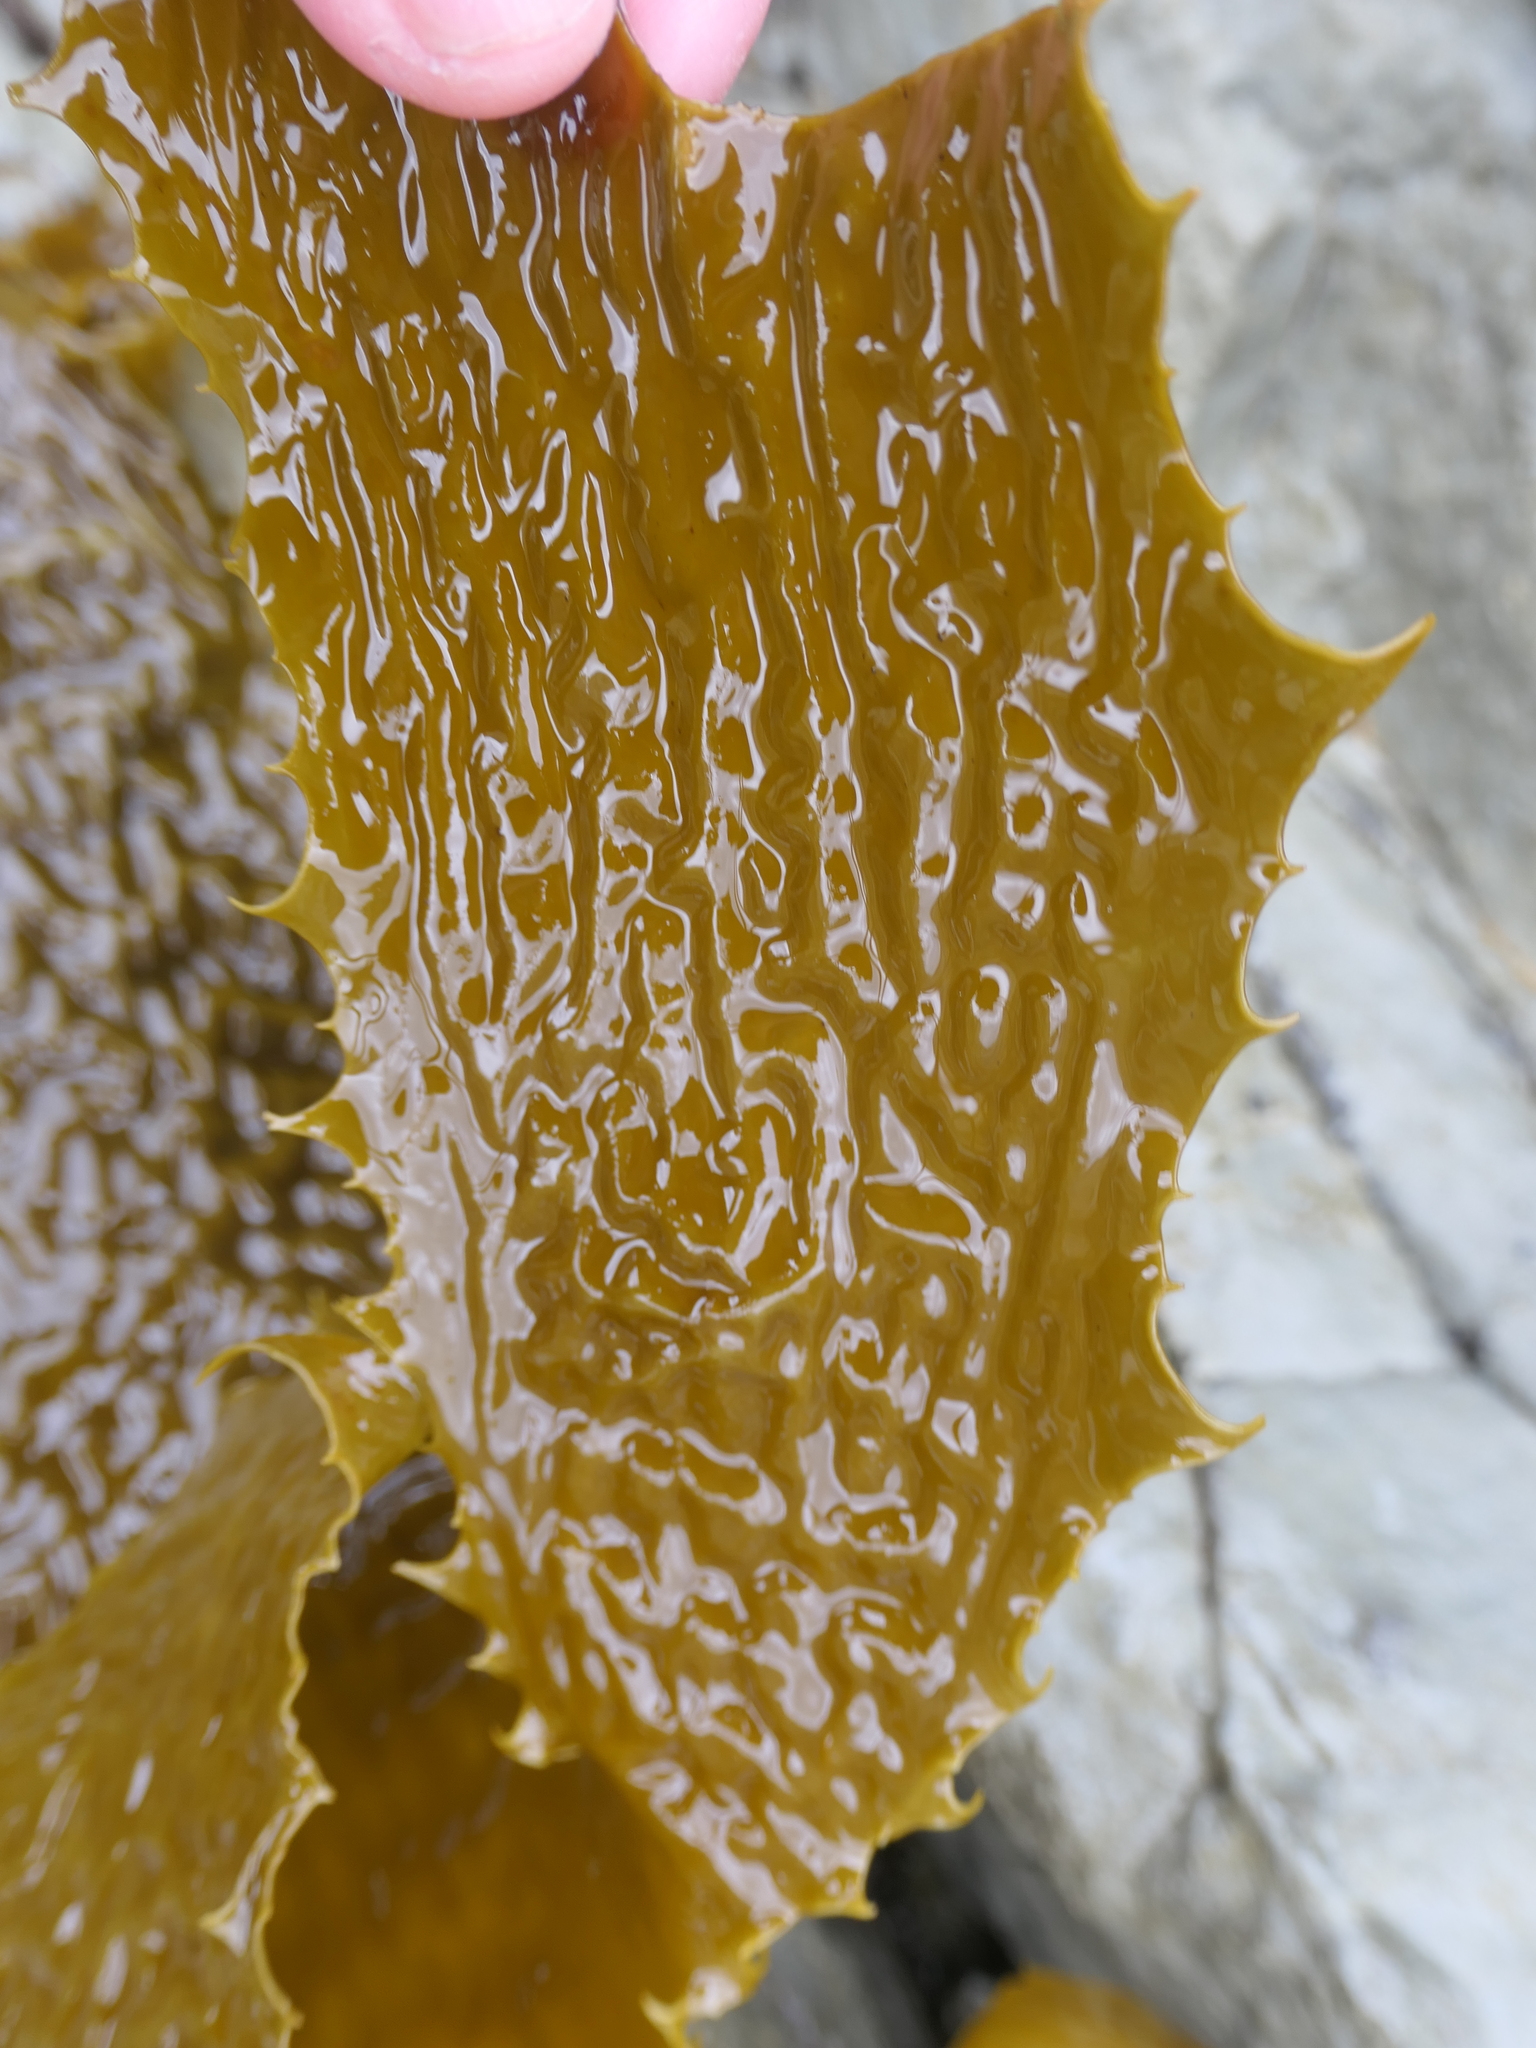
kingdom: Chromista
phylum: Ochrophyta
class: Phaeophyceae
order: Laminariales
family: Lessoniaceae
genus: Ecklonia
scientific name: Ecklonia radiata
